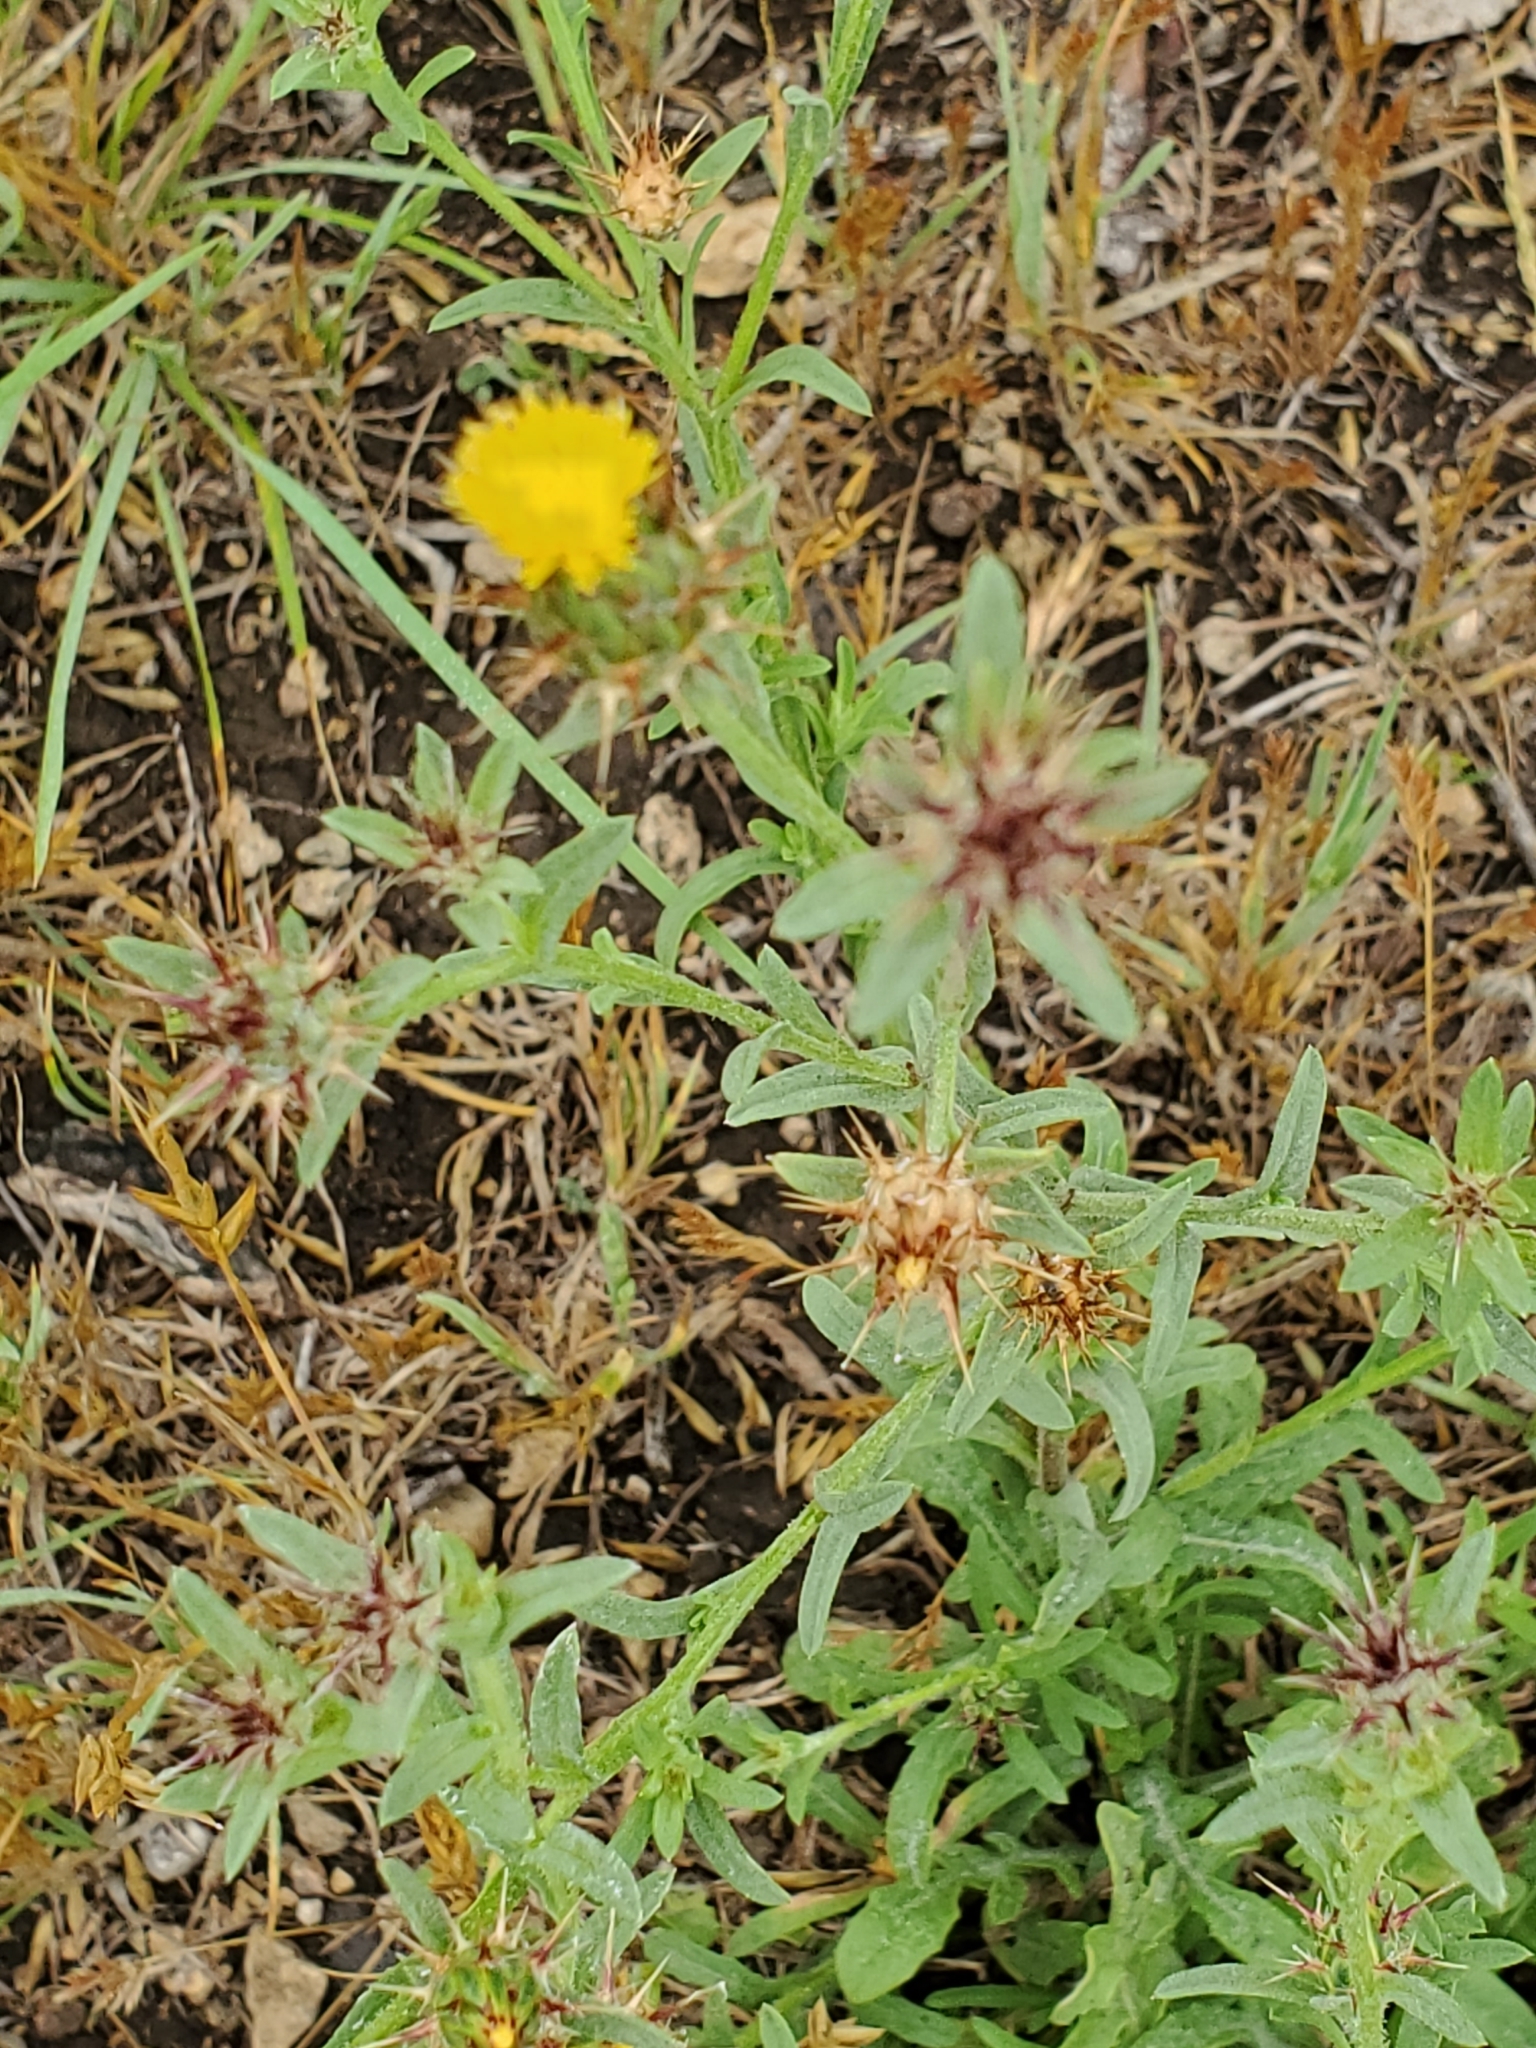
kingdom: Plantae
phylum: Tracheophyta
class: Magnoliopsida
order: Asterales
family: Asteraceae
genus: Centaurea
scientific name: Centaurea melitensis
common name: Maltese star-thistle
